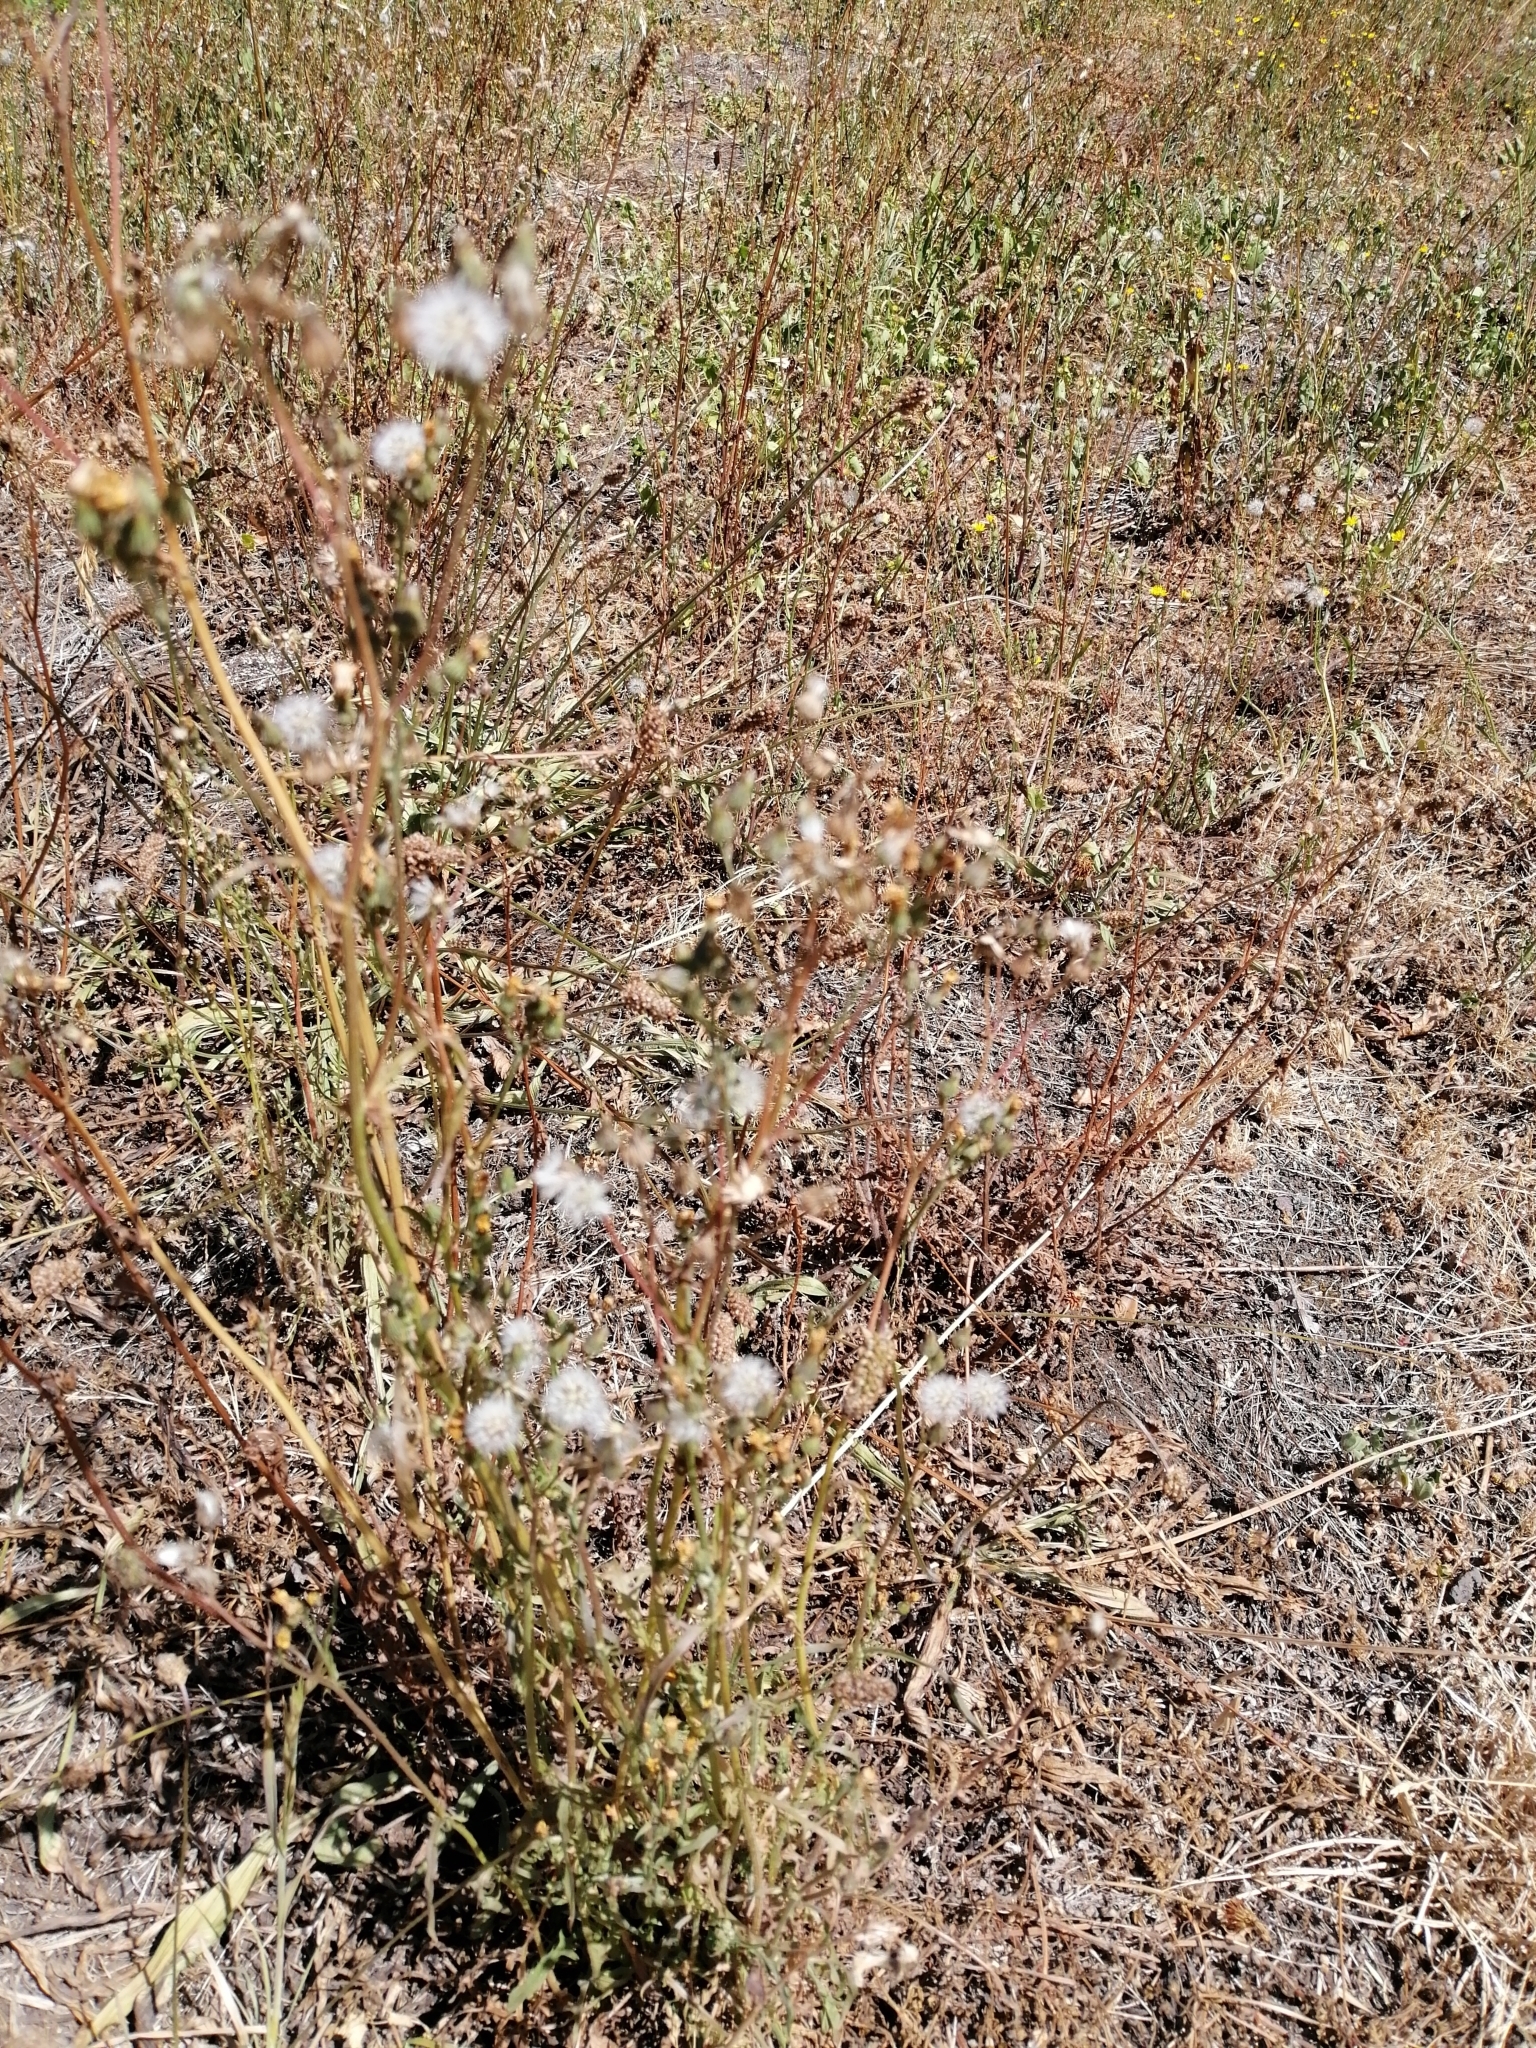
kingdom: Plantae
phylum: Tracheophyta
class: Magnoliopsida
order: Asterales
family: Asteraceae
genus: Crepis
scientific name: Crepis capillaris
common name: Smooth hawksbeard
